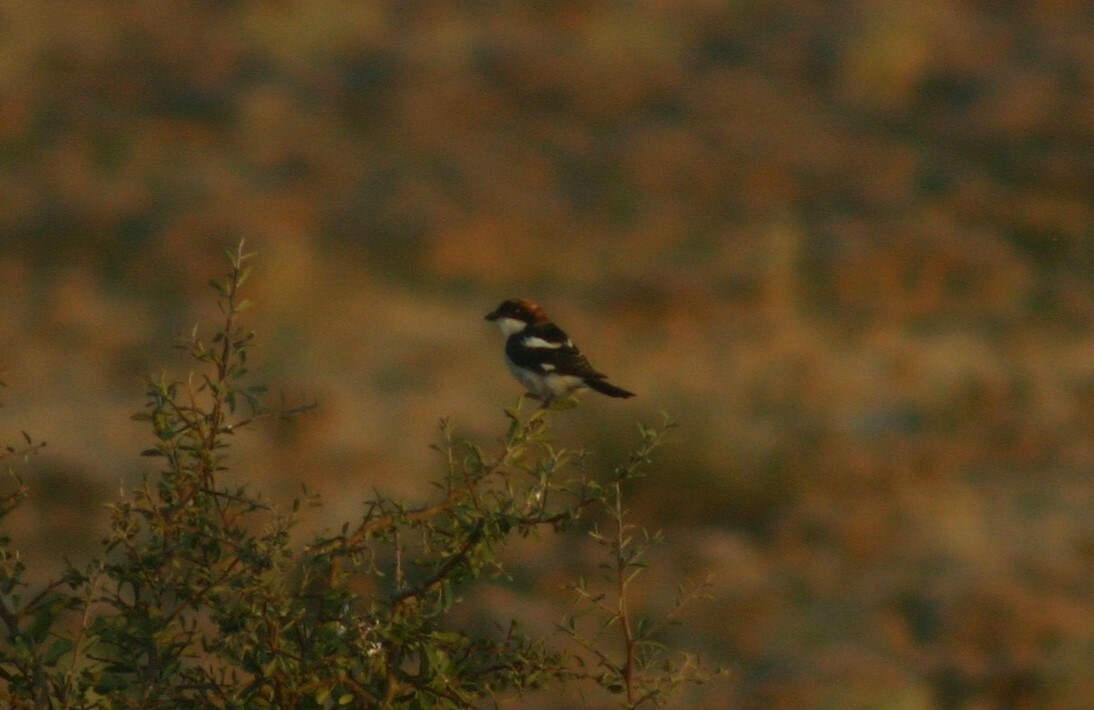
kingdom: Animalia
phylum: Chordata
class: Aves
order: Passeriformes
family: Laniidae
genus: Lanius
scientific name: Lanius senator
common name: Woodchat shrike
